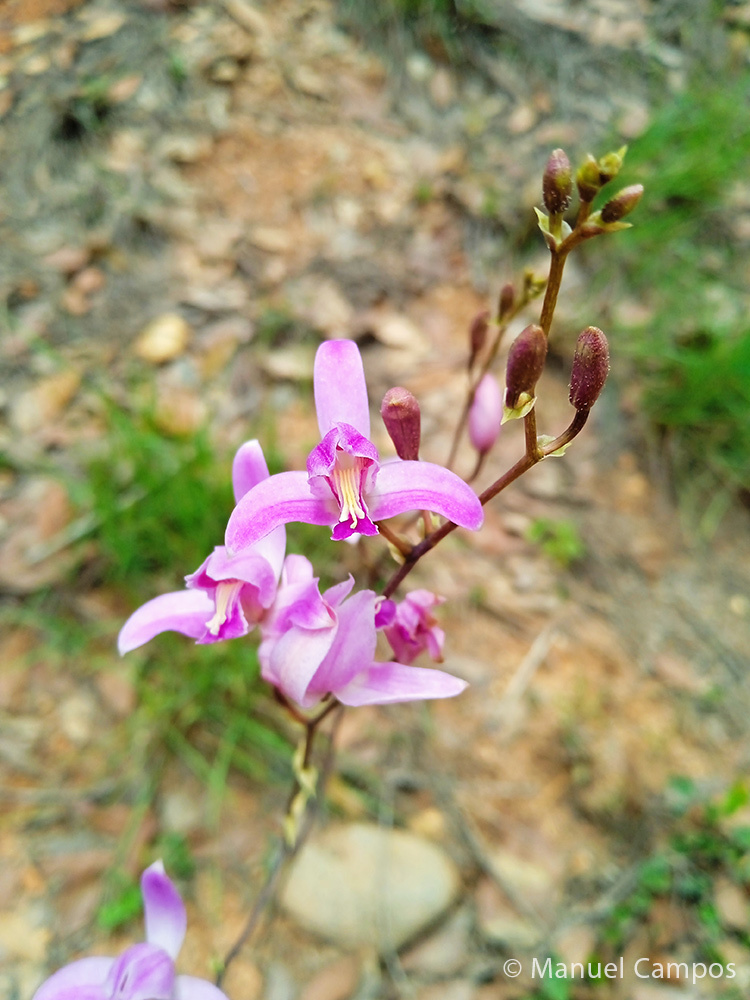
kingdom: Plantae
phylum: Tracheophyta
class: Liliopsida
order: Asparagales
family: Orchidaceae
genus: Bletia
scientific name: Bletia purpurea
